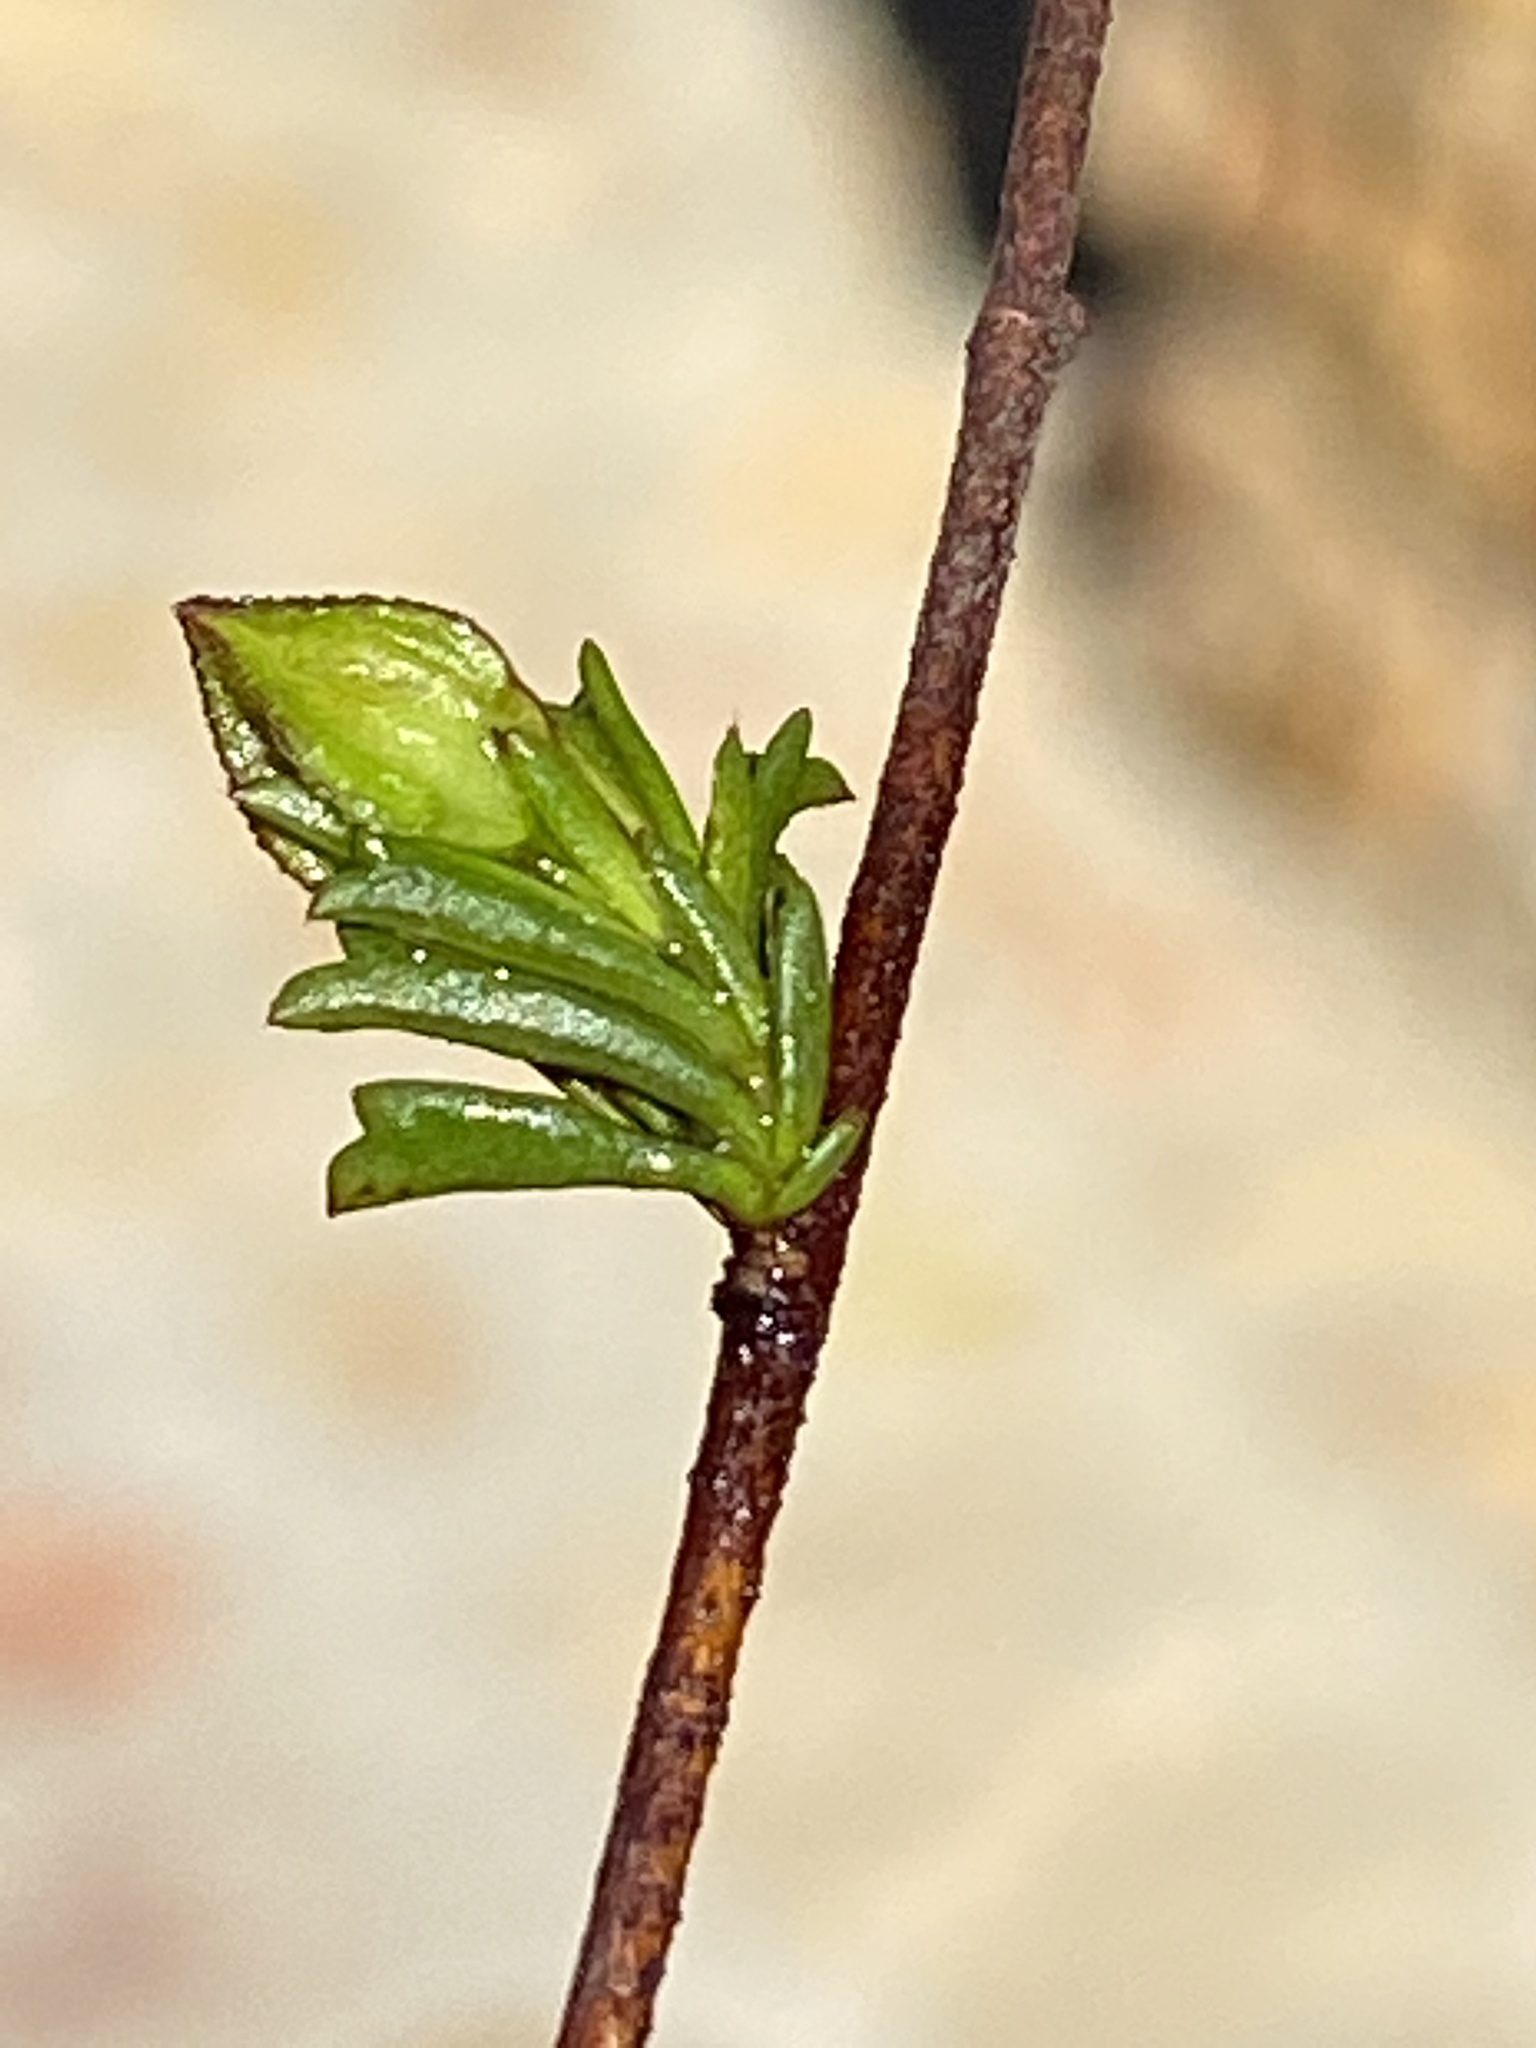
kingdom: Plantae
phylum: Tracheophyta
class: Magnoliopsida
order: Malvales
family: Malvaceae
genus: Hermannia
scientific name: Hermannia angularis
